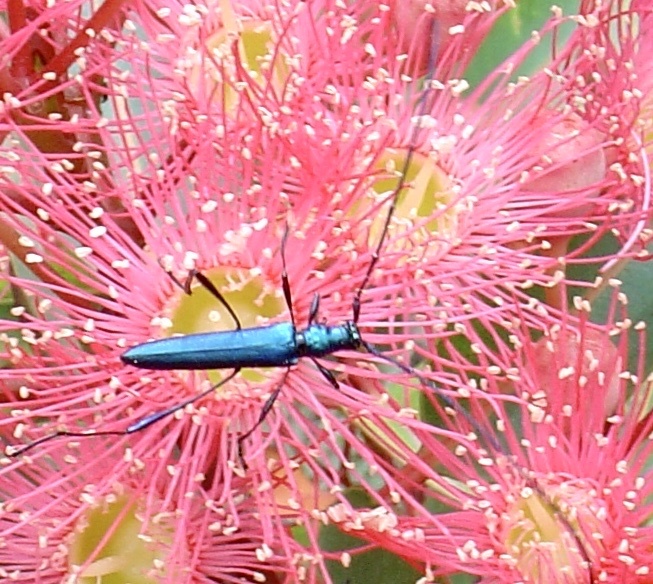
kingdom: Animalia
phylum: Arthropoda
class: Insecta
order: Coleoptera
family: Cerambycidae
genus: Promeces
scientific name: Promeces longipes
